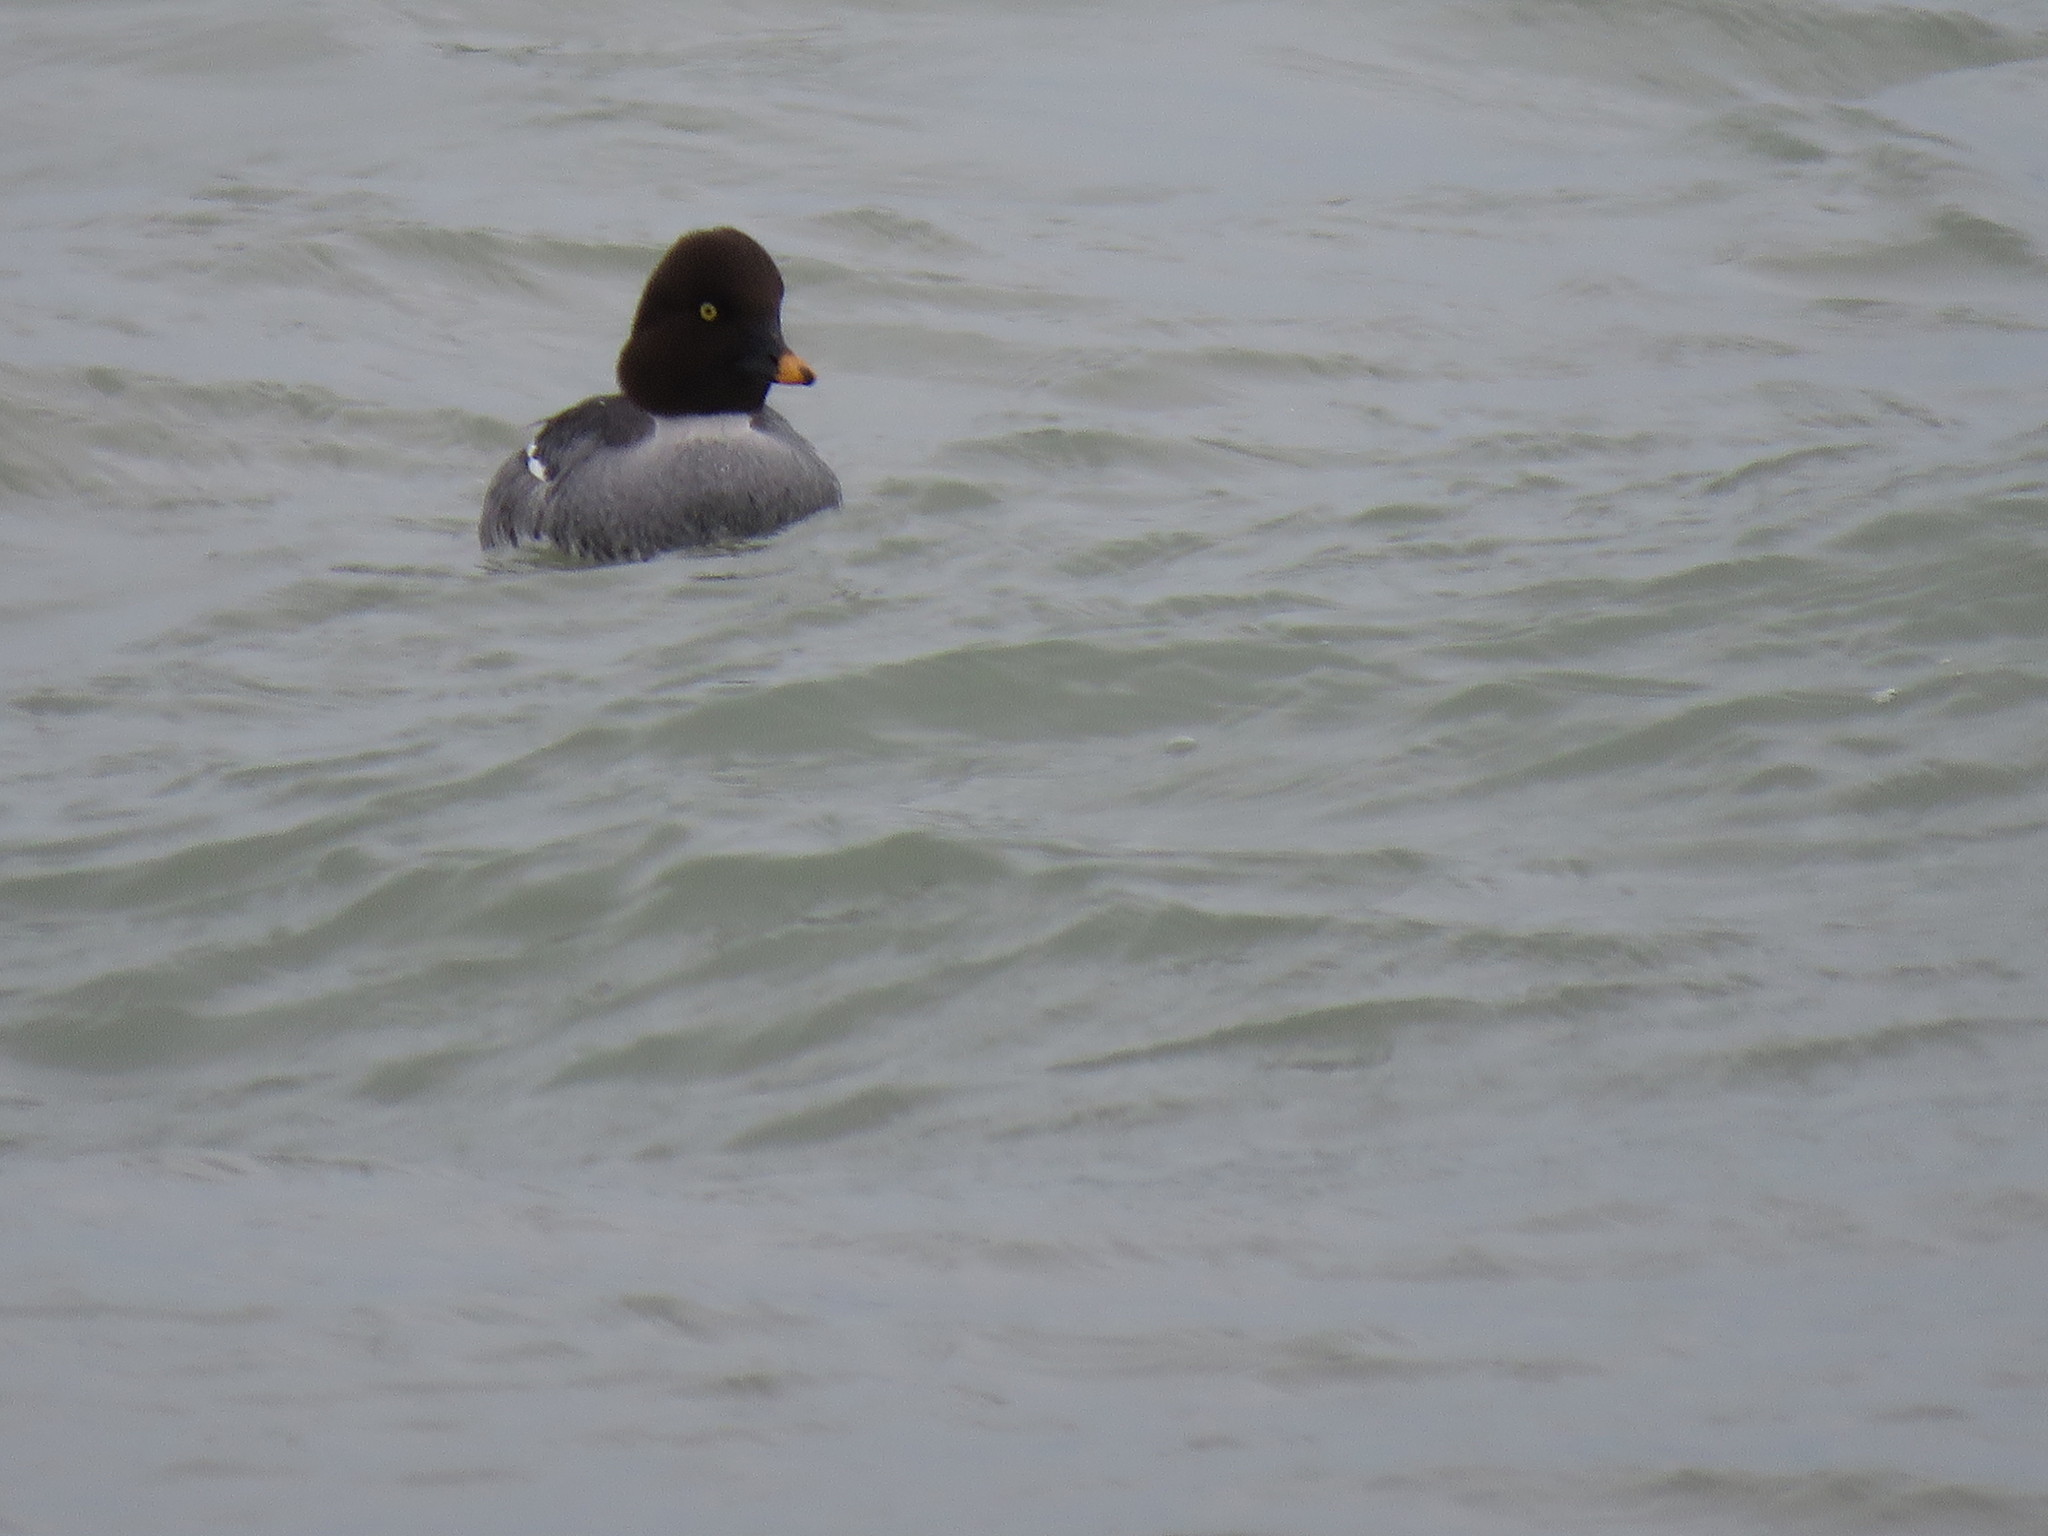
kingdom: Animalia
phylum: Chordata
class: Aves
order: Anseriformes
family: Anatidae
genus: Bucephala
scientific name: Bucephala clangula
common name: Common goldeneye
